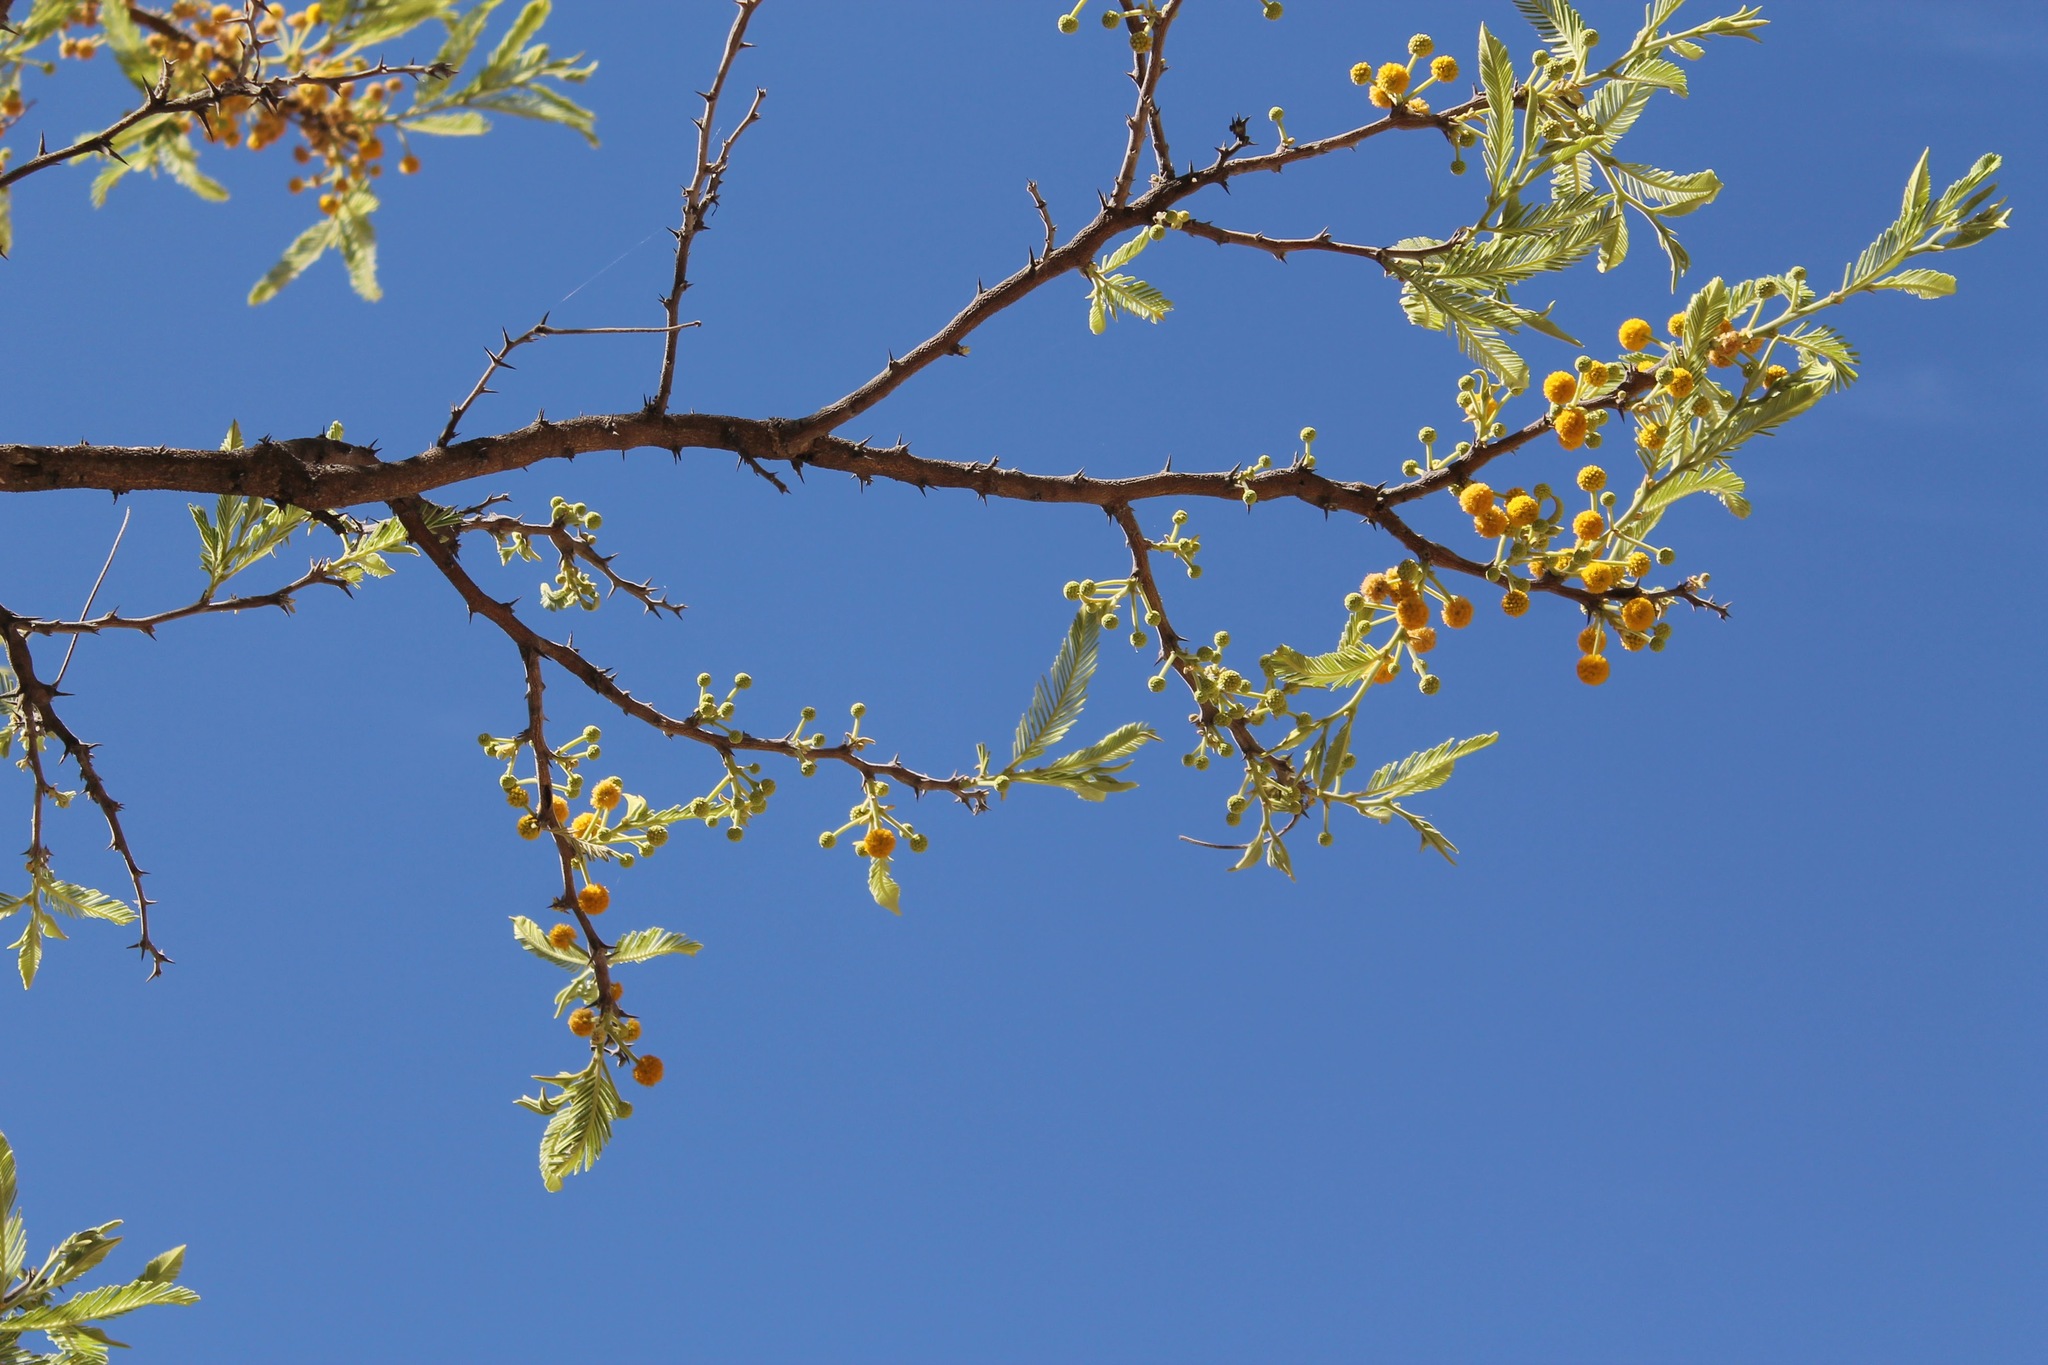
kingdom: Plantae
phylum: Tracheophyta
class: Magnoliopsida
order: Fabales
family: Fabaceae
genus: Vachellia
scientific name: Vachellia pennatula
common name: Fern-leaf acacia
